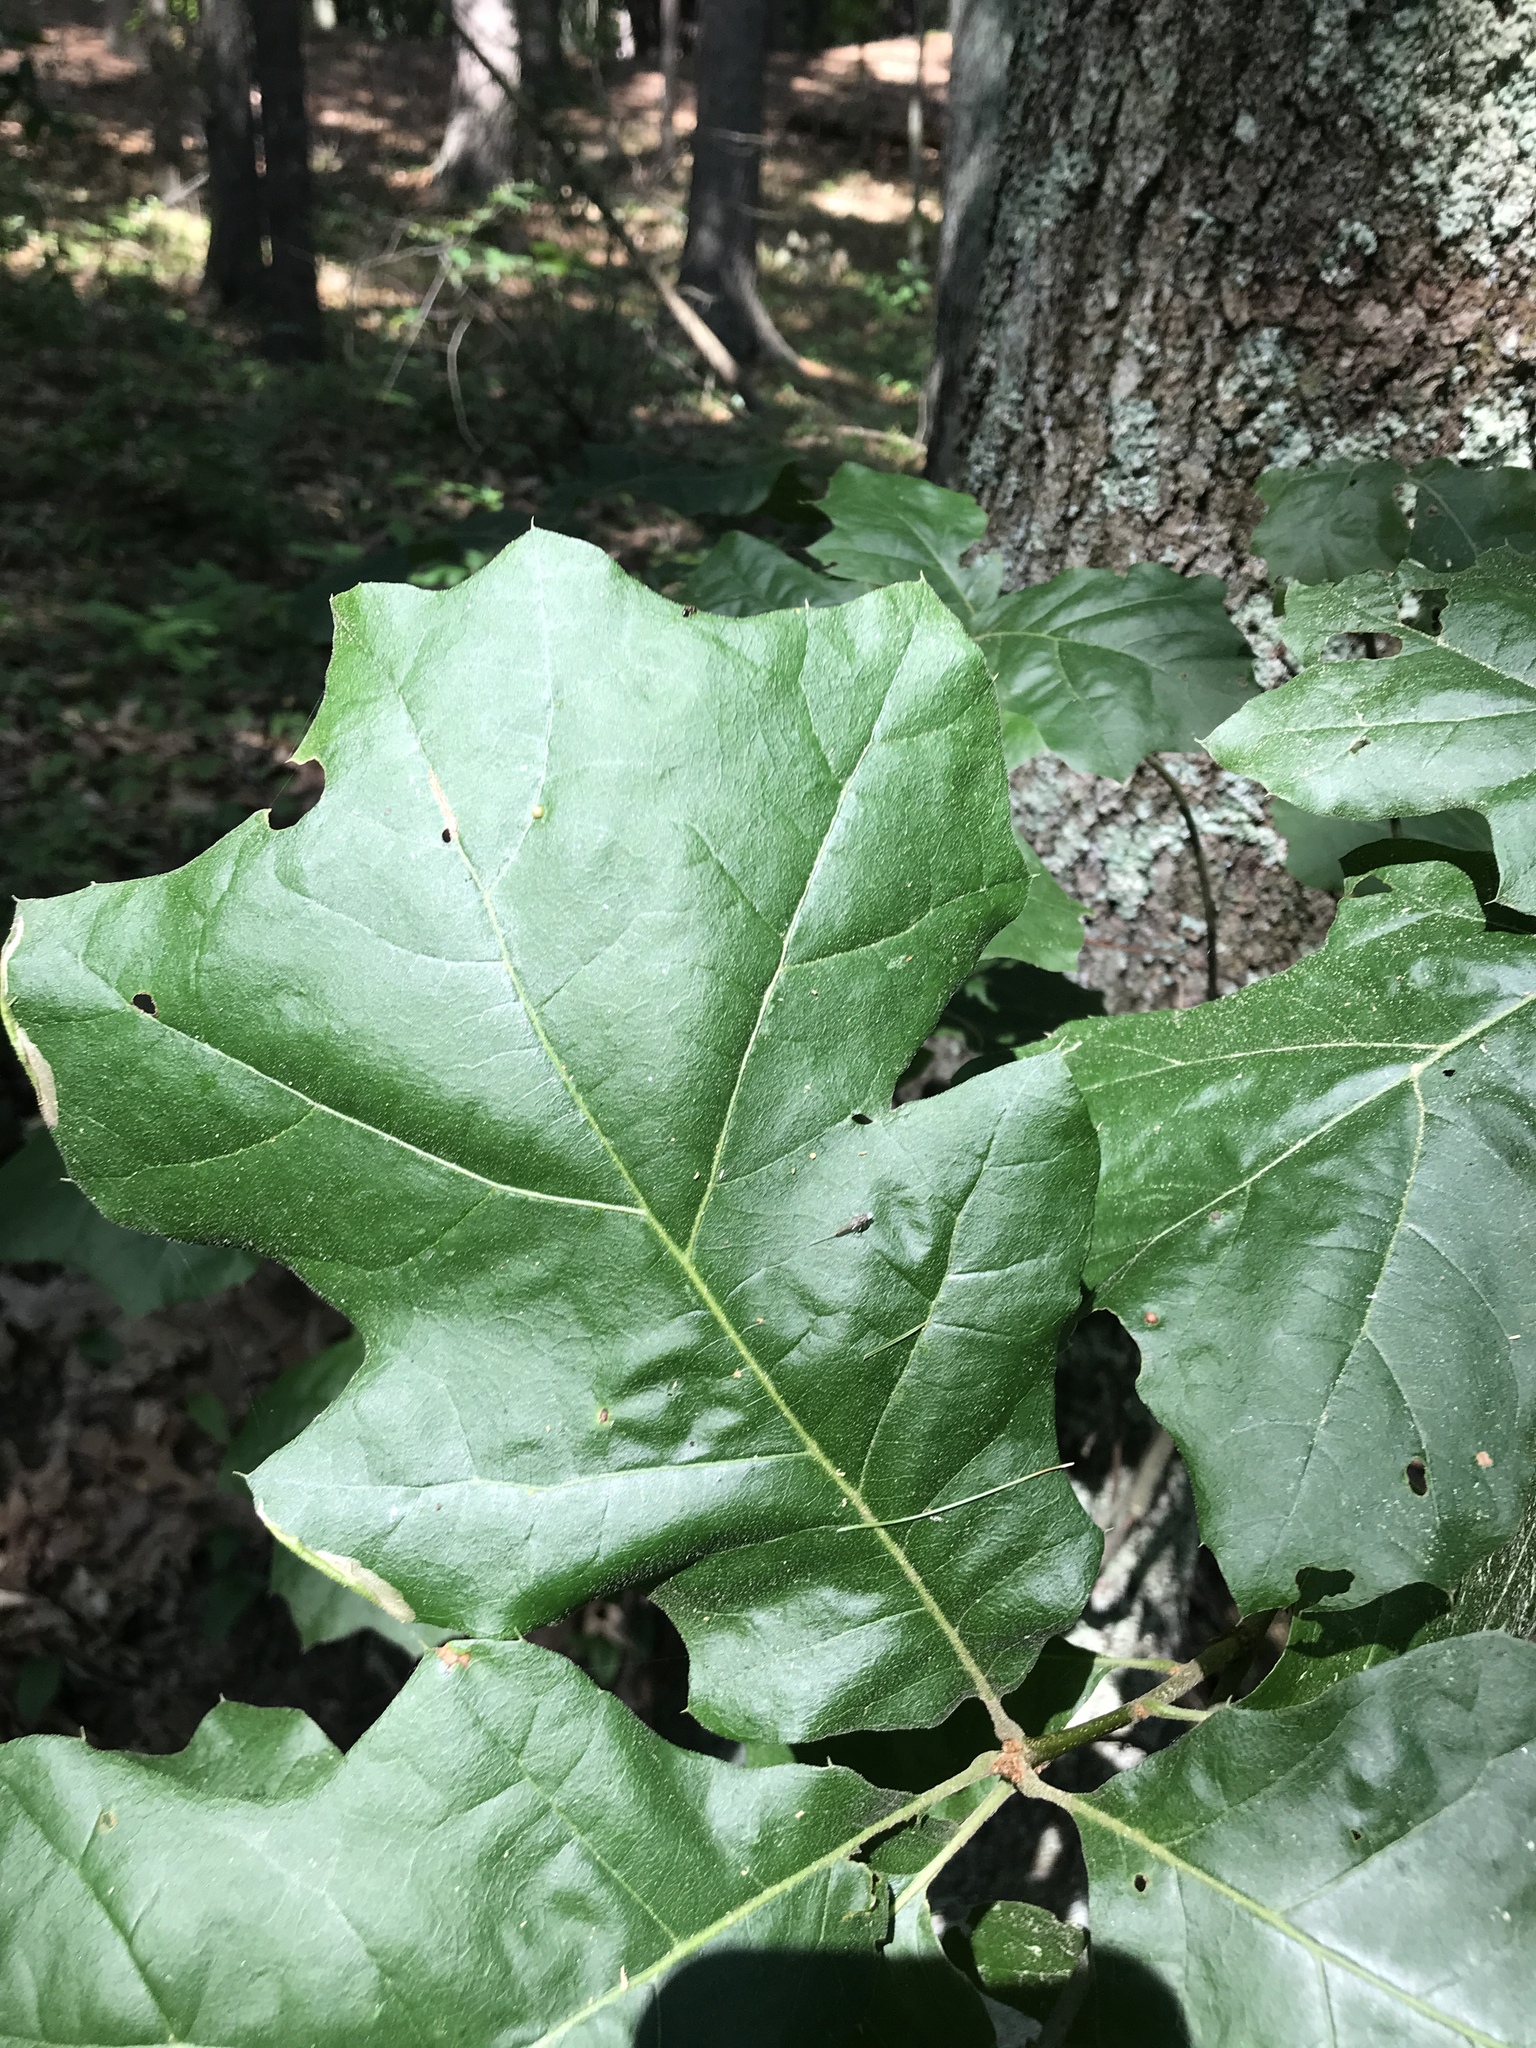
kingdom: Plantae
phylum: Tracheophyta
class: Magnoliopsida
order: Fagales
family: Fagaceae
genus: Quercus
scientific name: Quercus velutina
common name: Black oak
